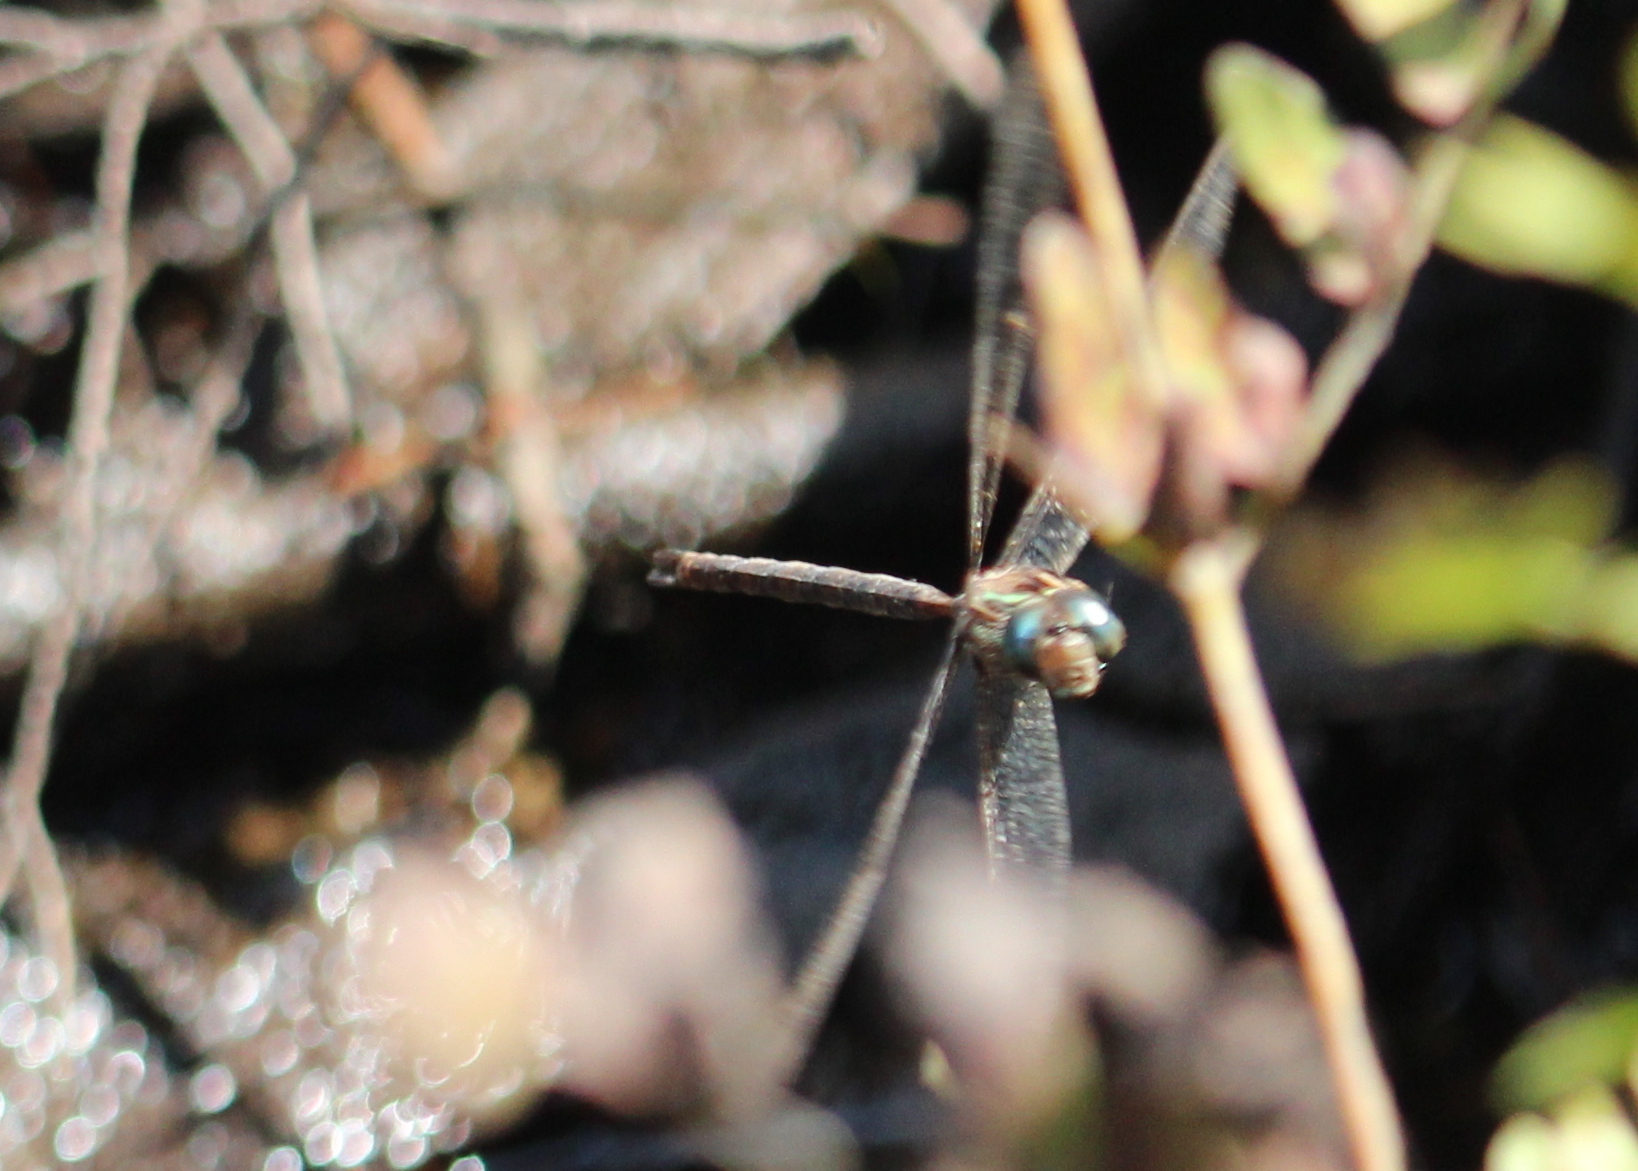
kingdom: Animalia
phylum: Arthropoda
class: Insecta
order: Odonata
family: Aeshnidae
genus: Boyeria
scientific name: Boyeria vinosa
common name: Fawn darner
